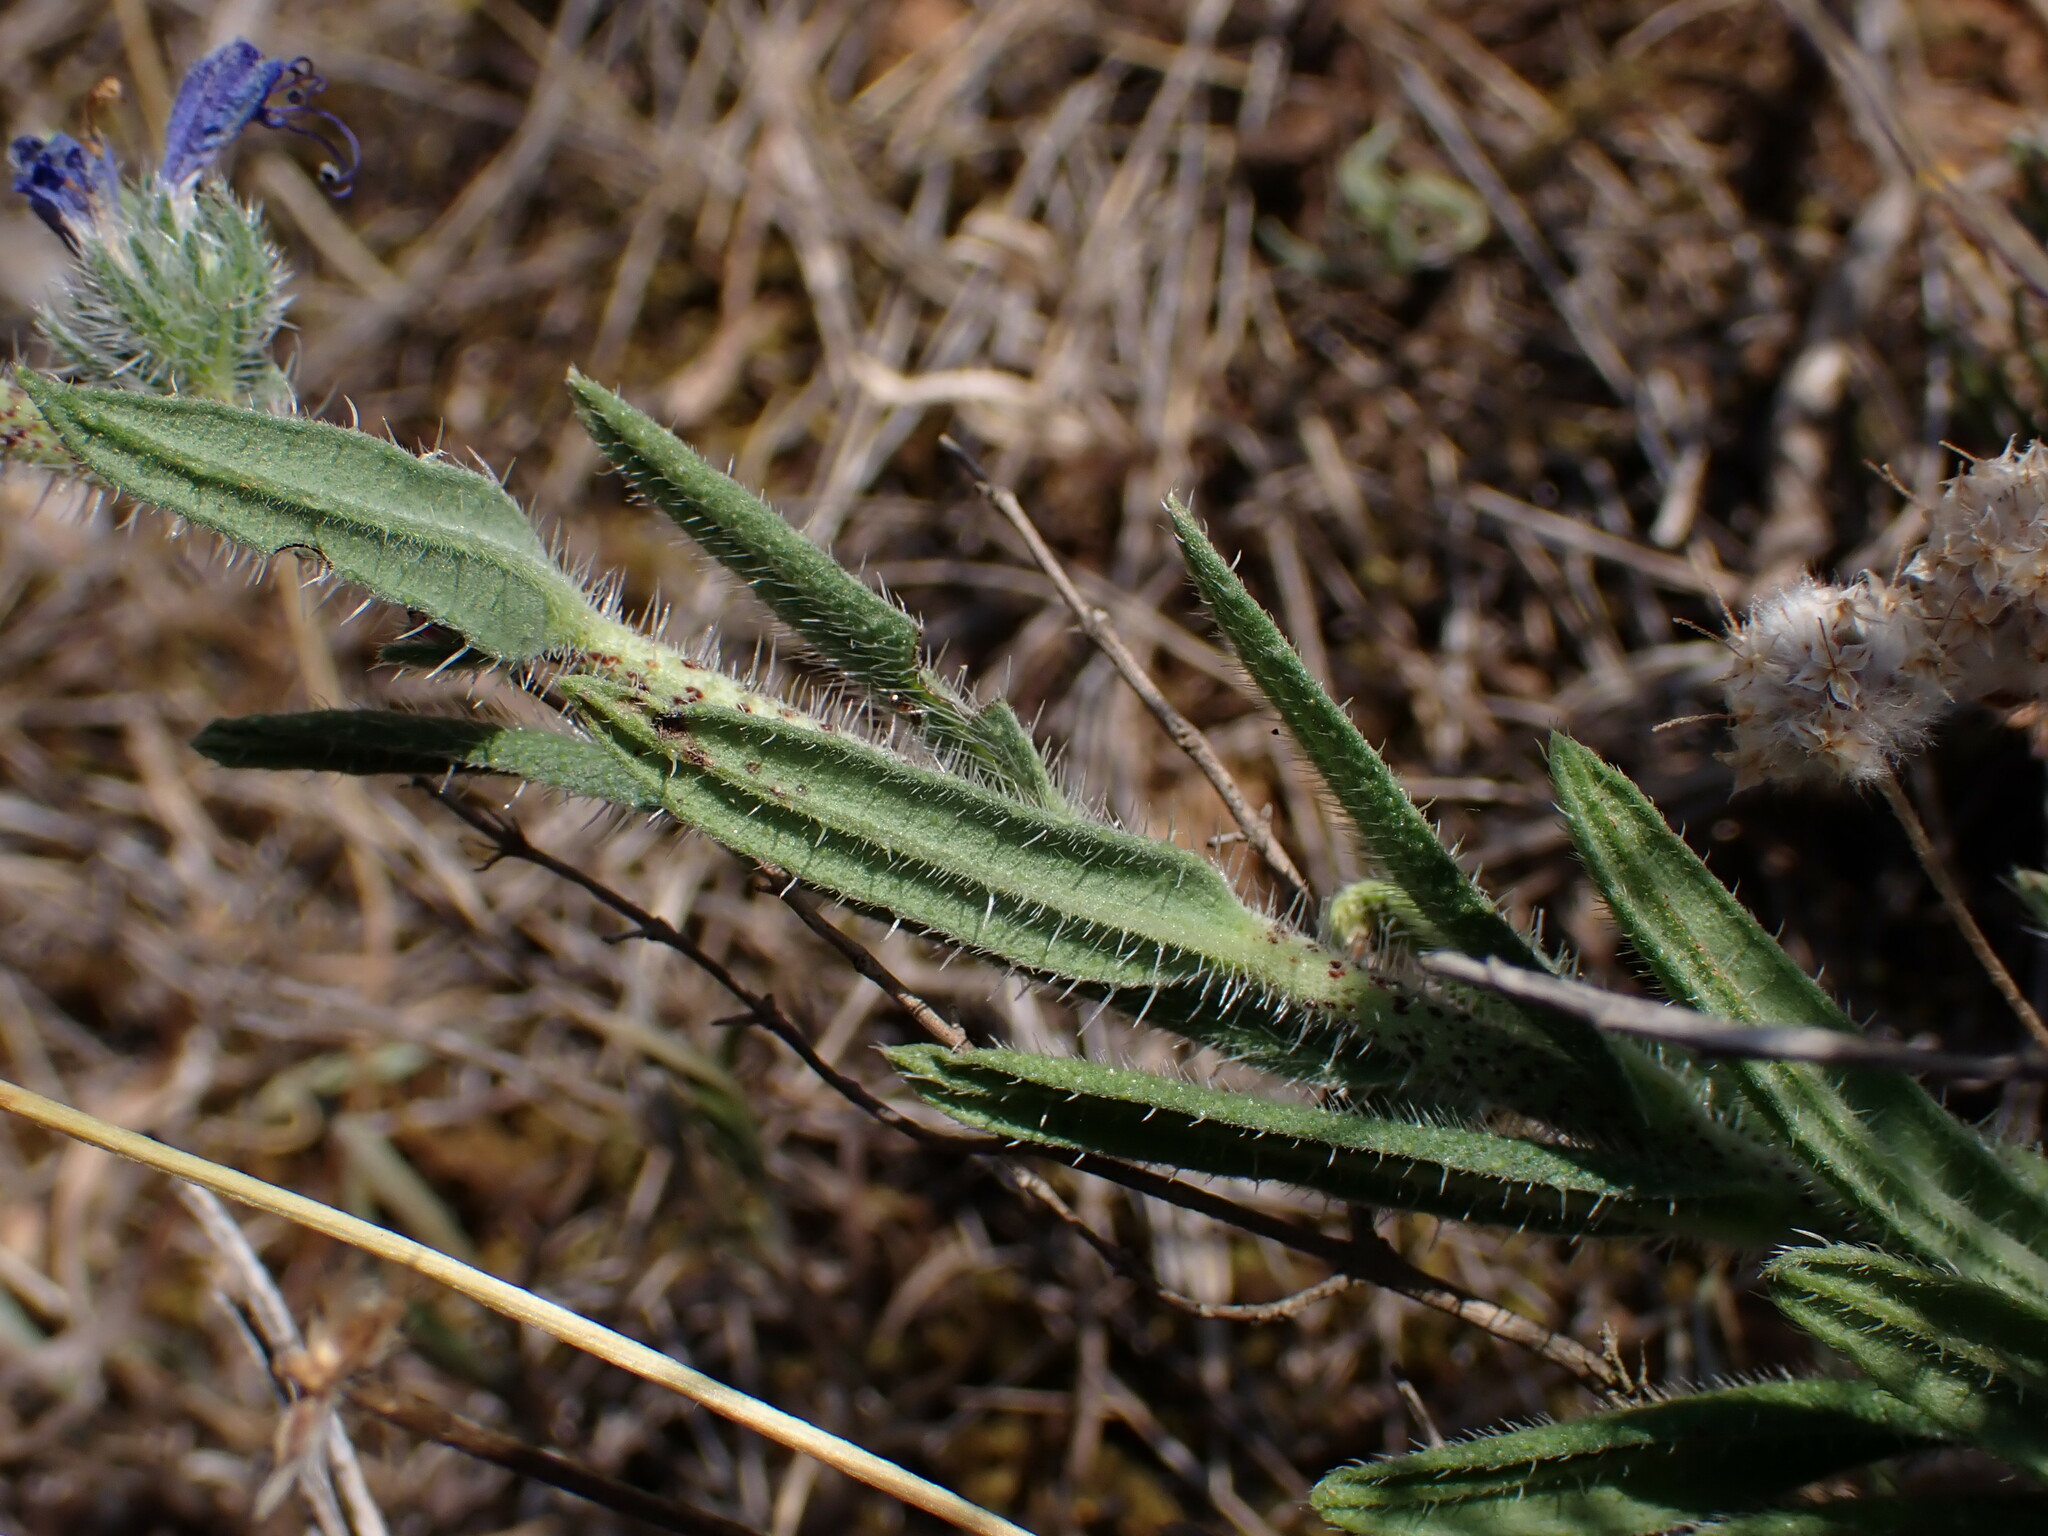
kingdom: Plantae
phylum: Tracheophyta
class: Magnoliopsida
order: Boraginales
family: Boraginaceae
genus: Echium
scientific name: Echium vulgare
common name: Common viper's bugloss
